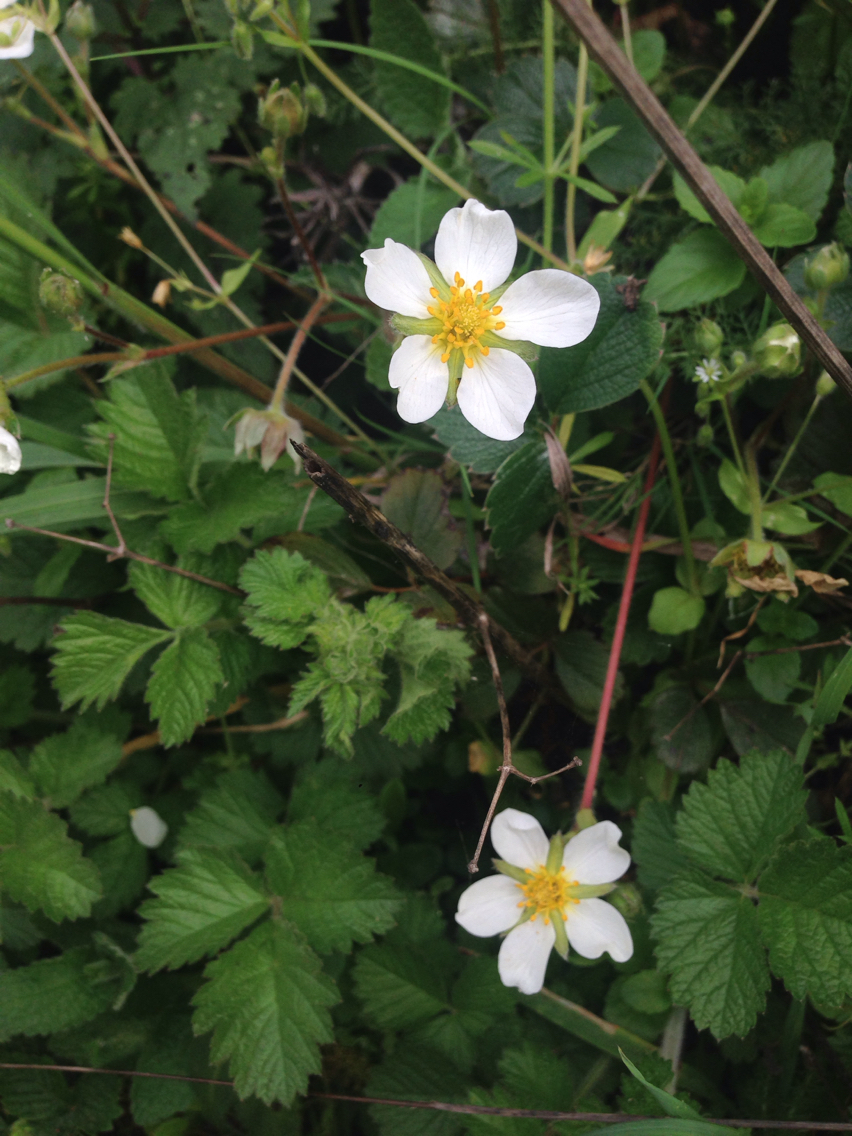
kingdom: Plantae
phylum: Tracheophyta
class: Magnoliopsida
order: Rosales
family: Rosaceae
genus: Fragaria
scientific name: Fragaria chiloensis
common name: Beach strawberry
